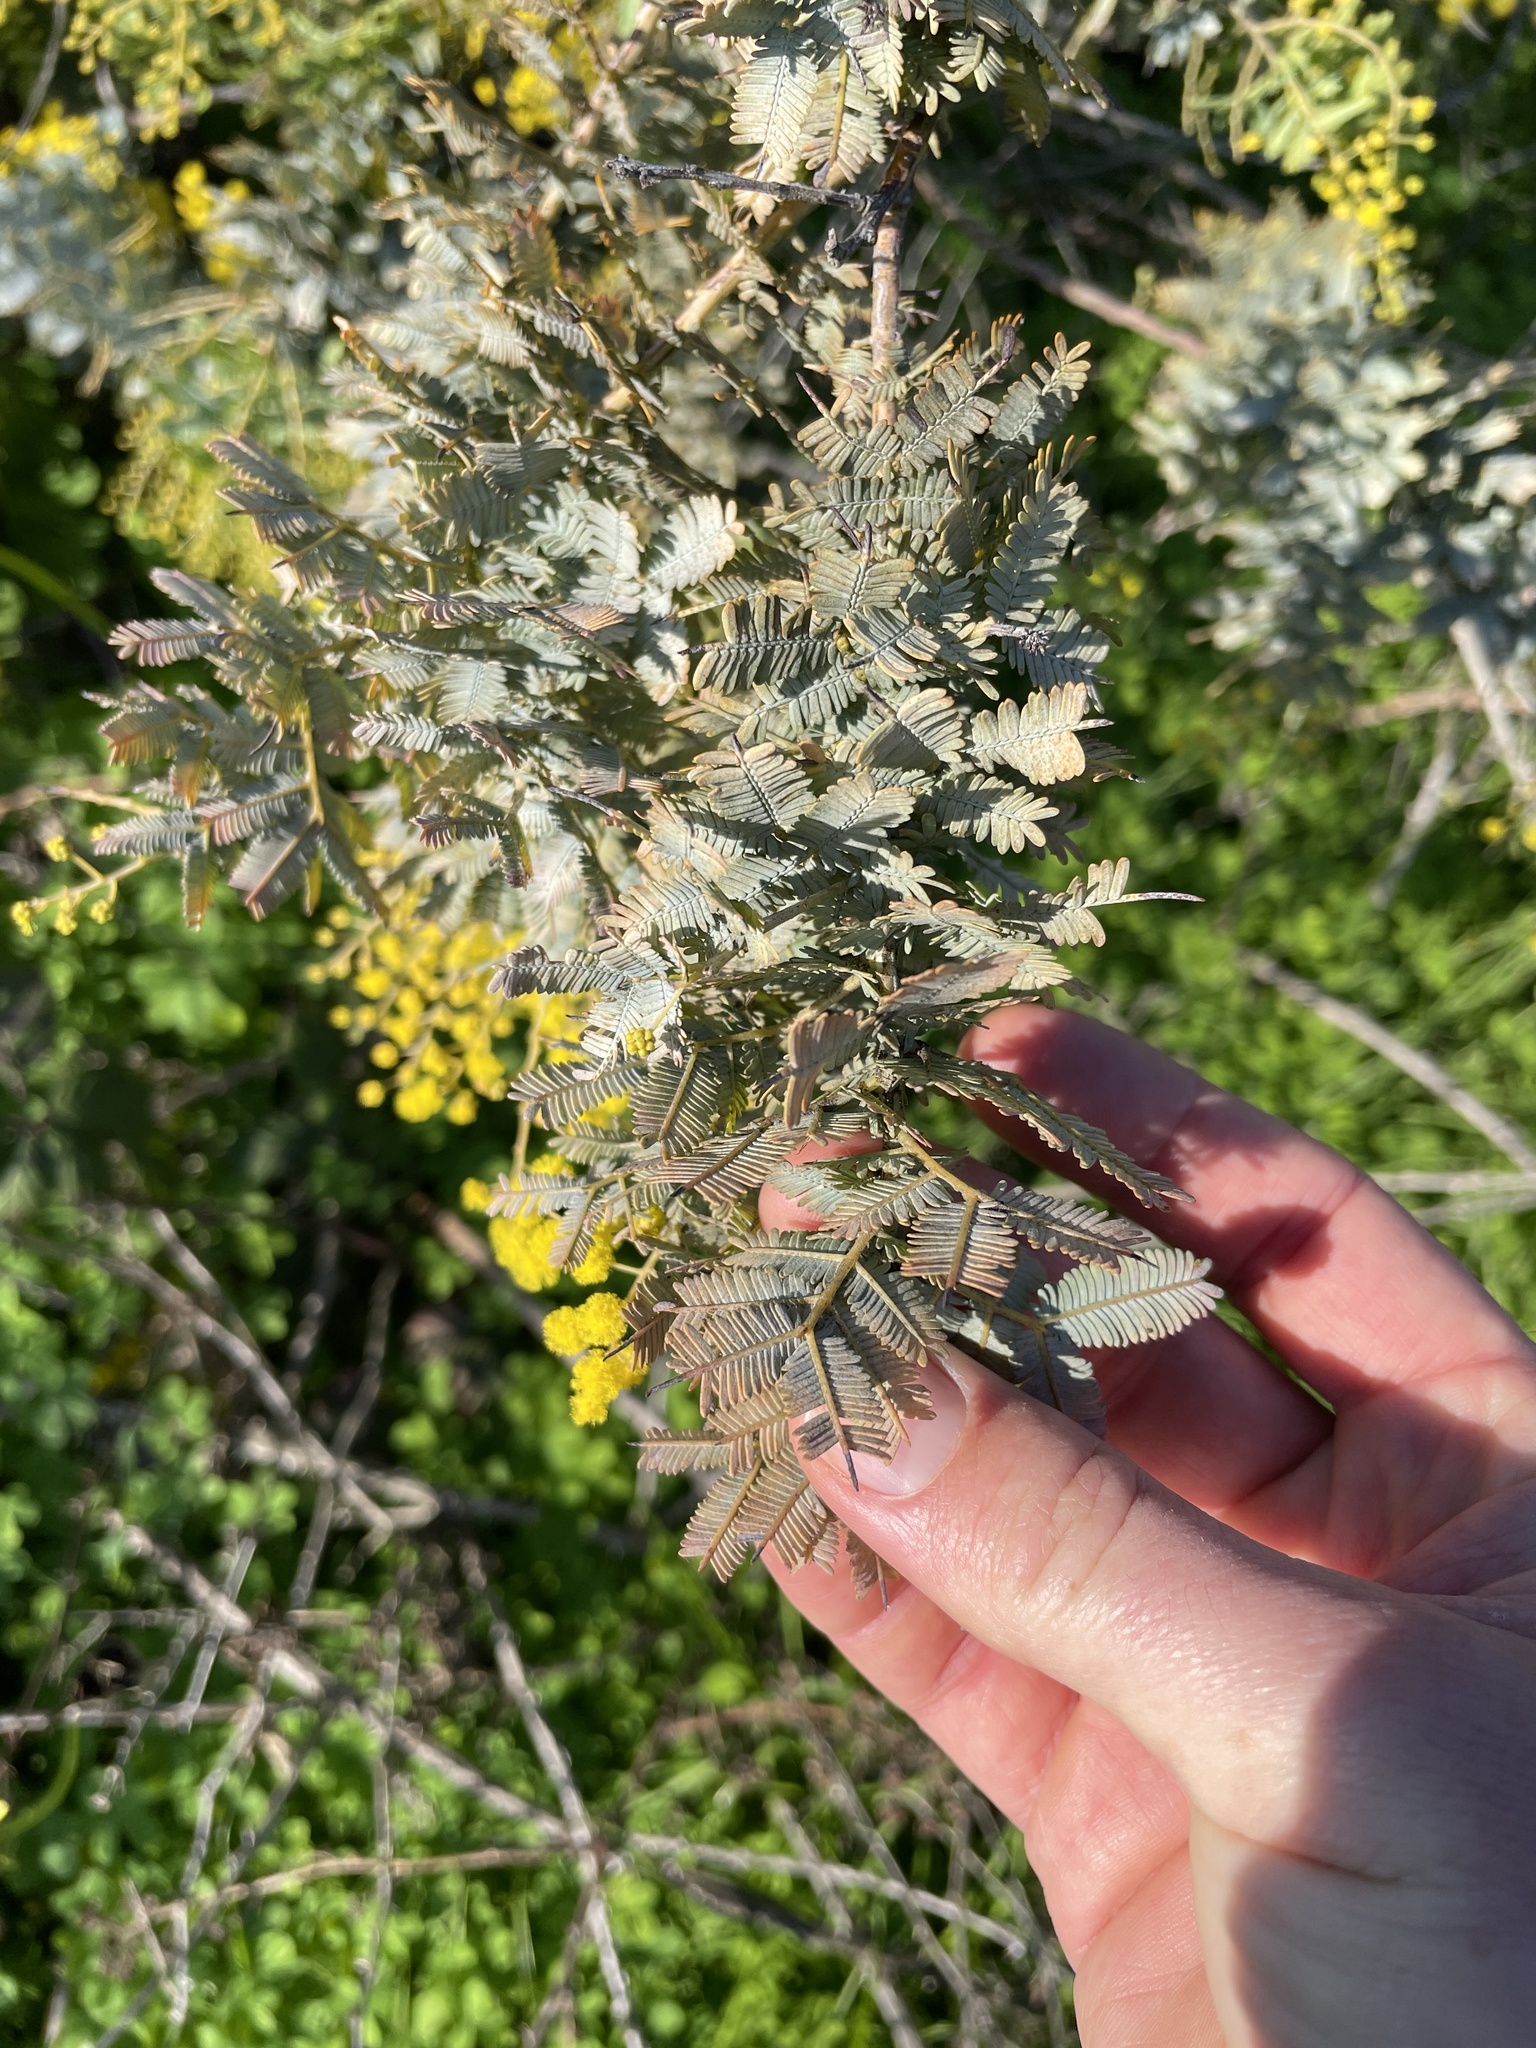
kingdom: Plantae
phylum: Tracheophyta
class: Magnoliopsida
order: Fabales
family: Fabaceae
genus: Acacia
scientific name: Acacia baileyana
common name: Cootamundra wattle
